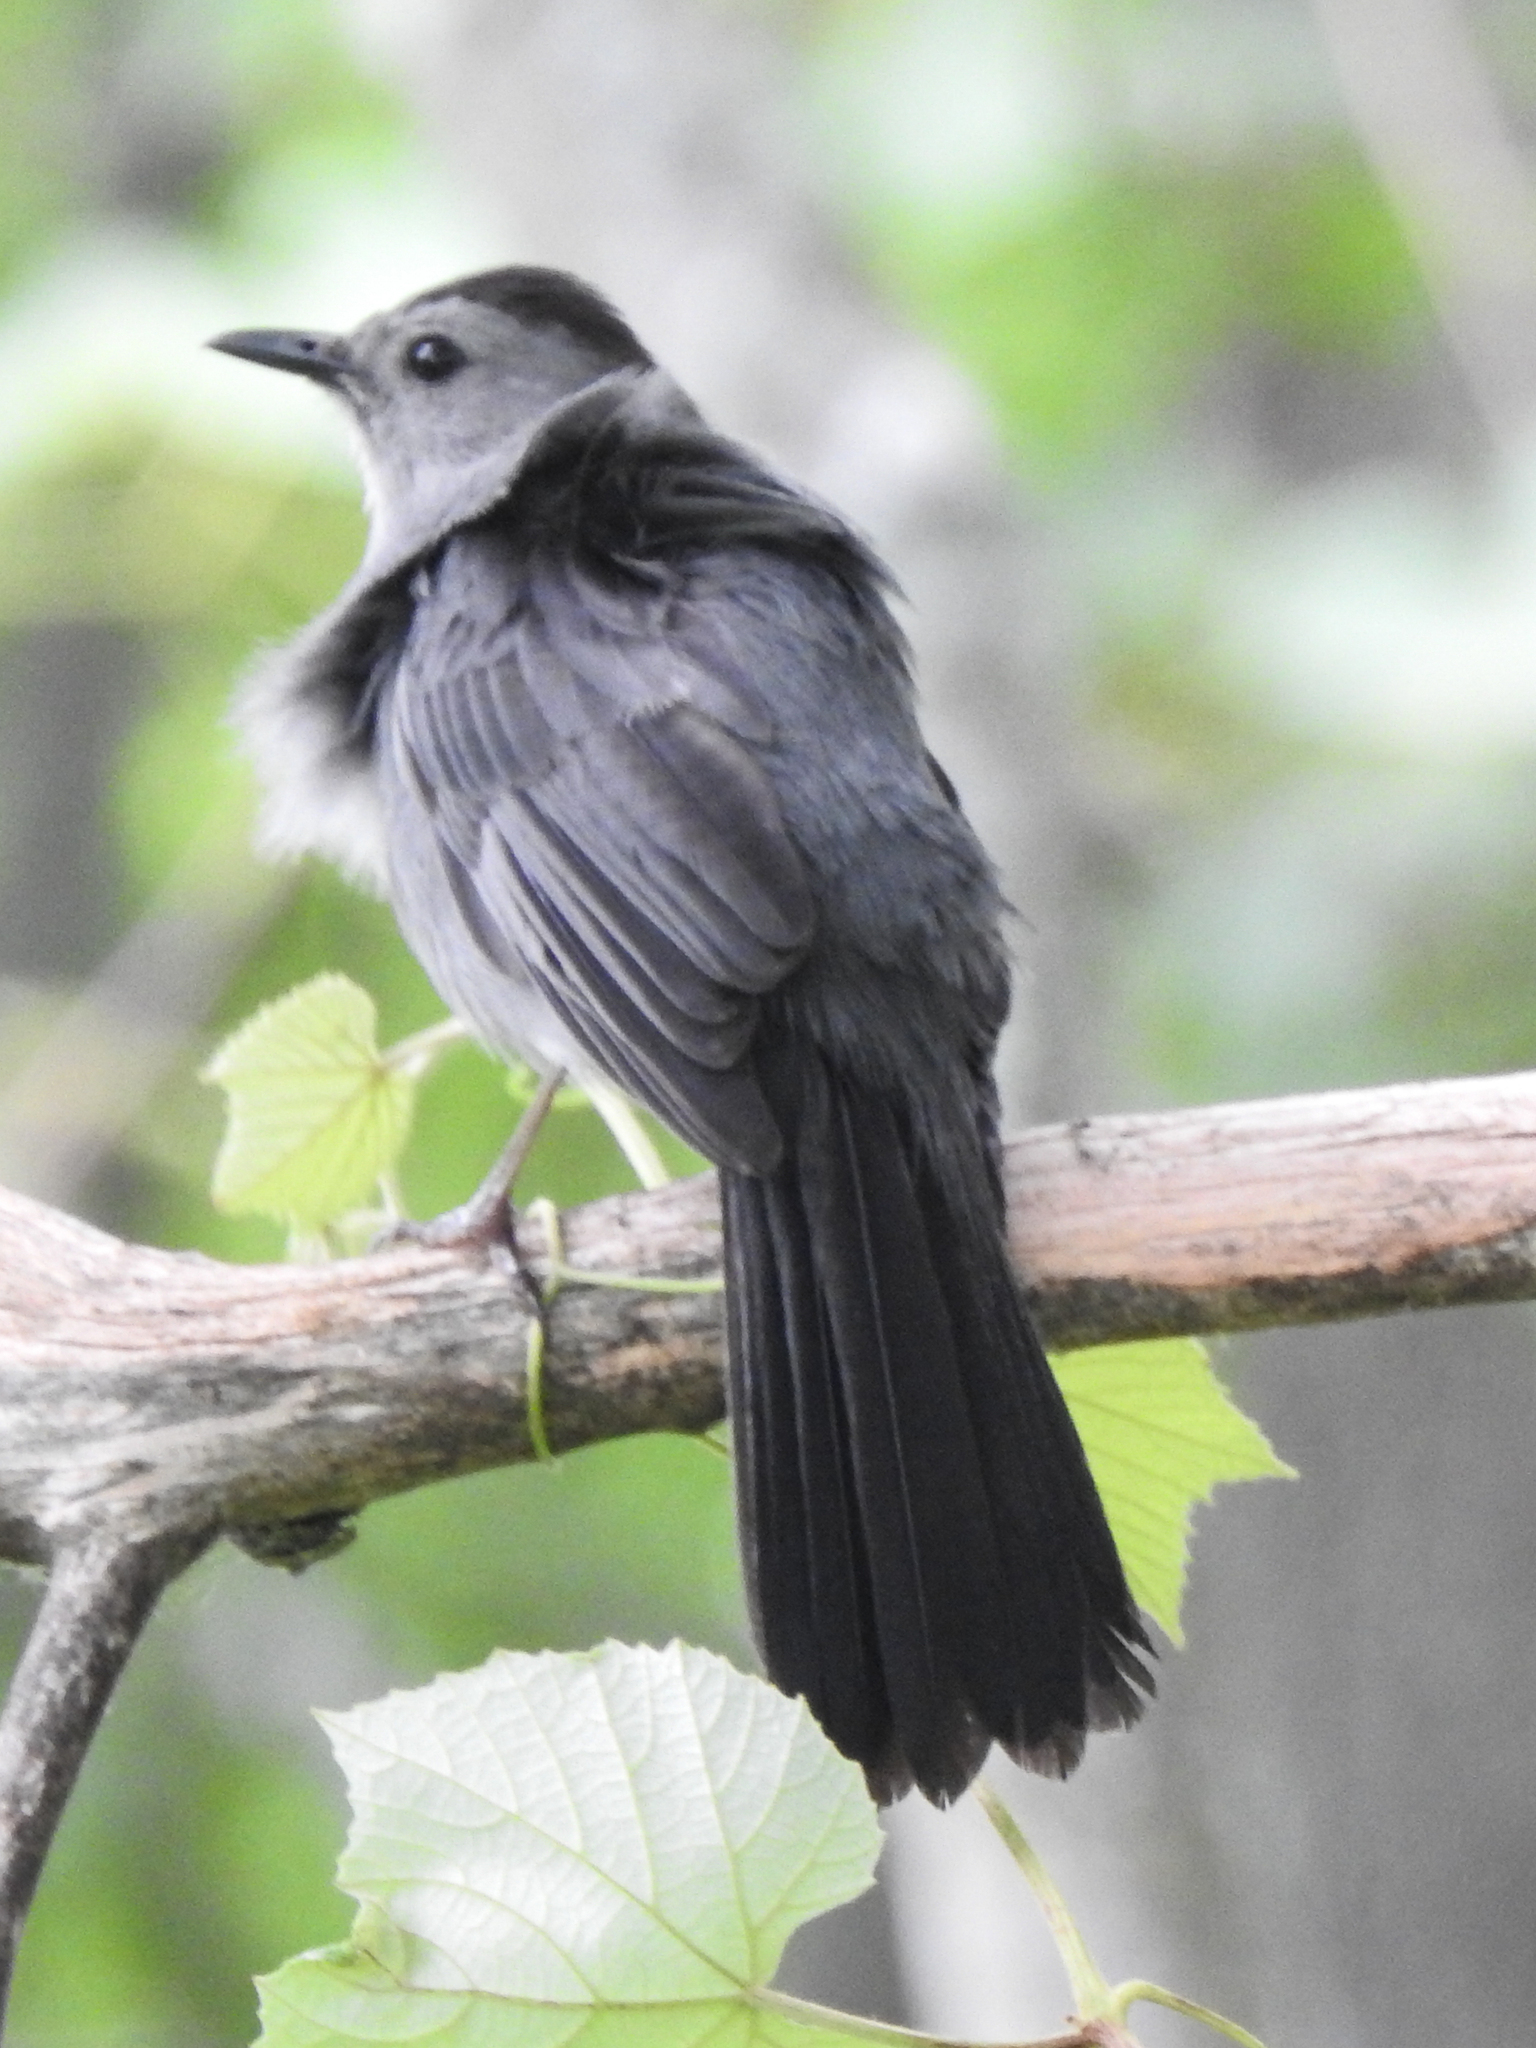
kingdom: Animalia
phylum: Chordata
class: Aves
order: Passeriformes
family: Mimidae
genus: Dumetella
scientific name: Dumetella carolinensis
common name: Gray catbird
